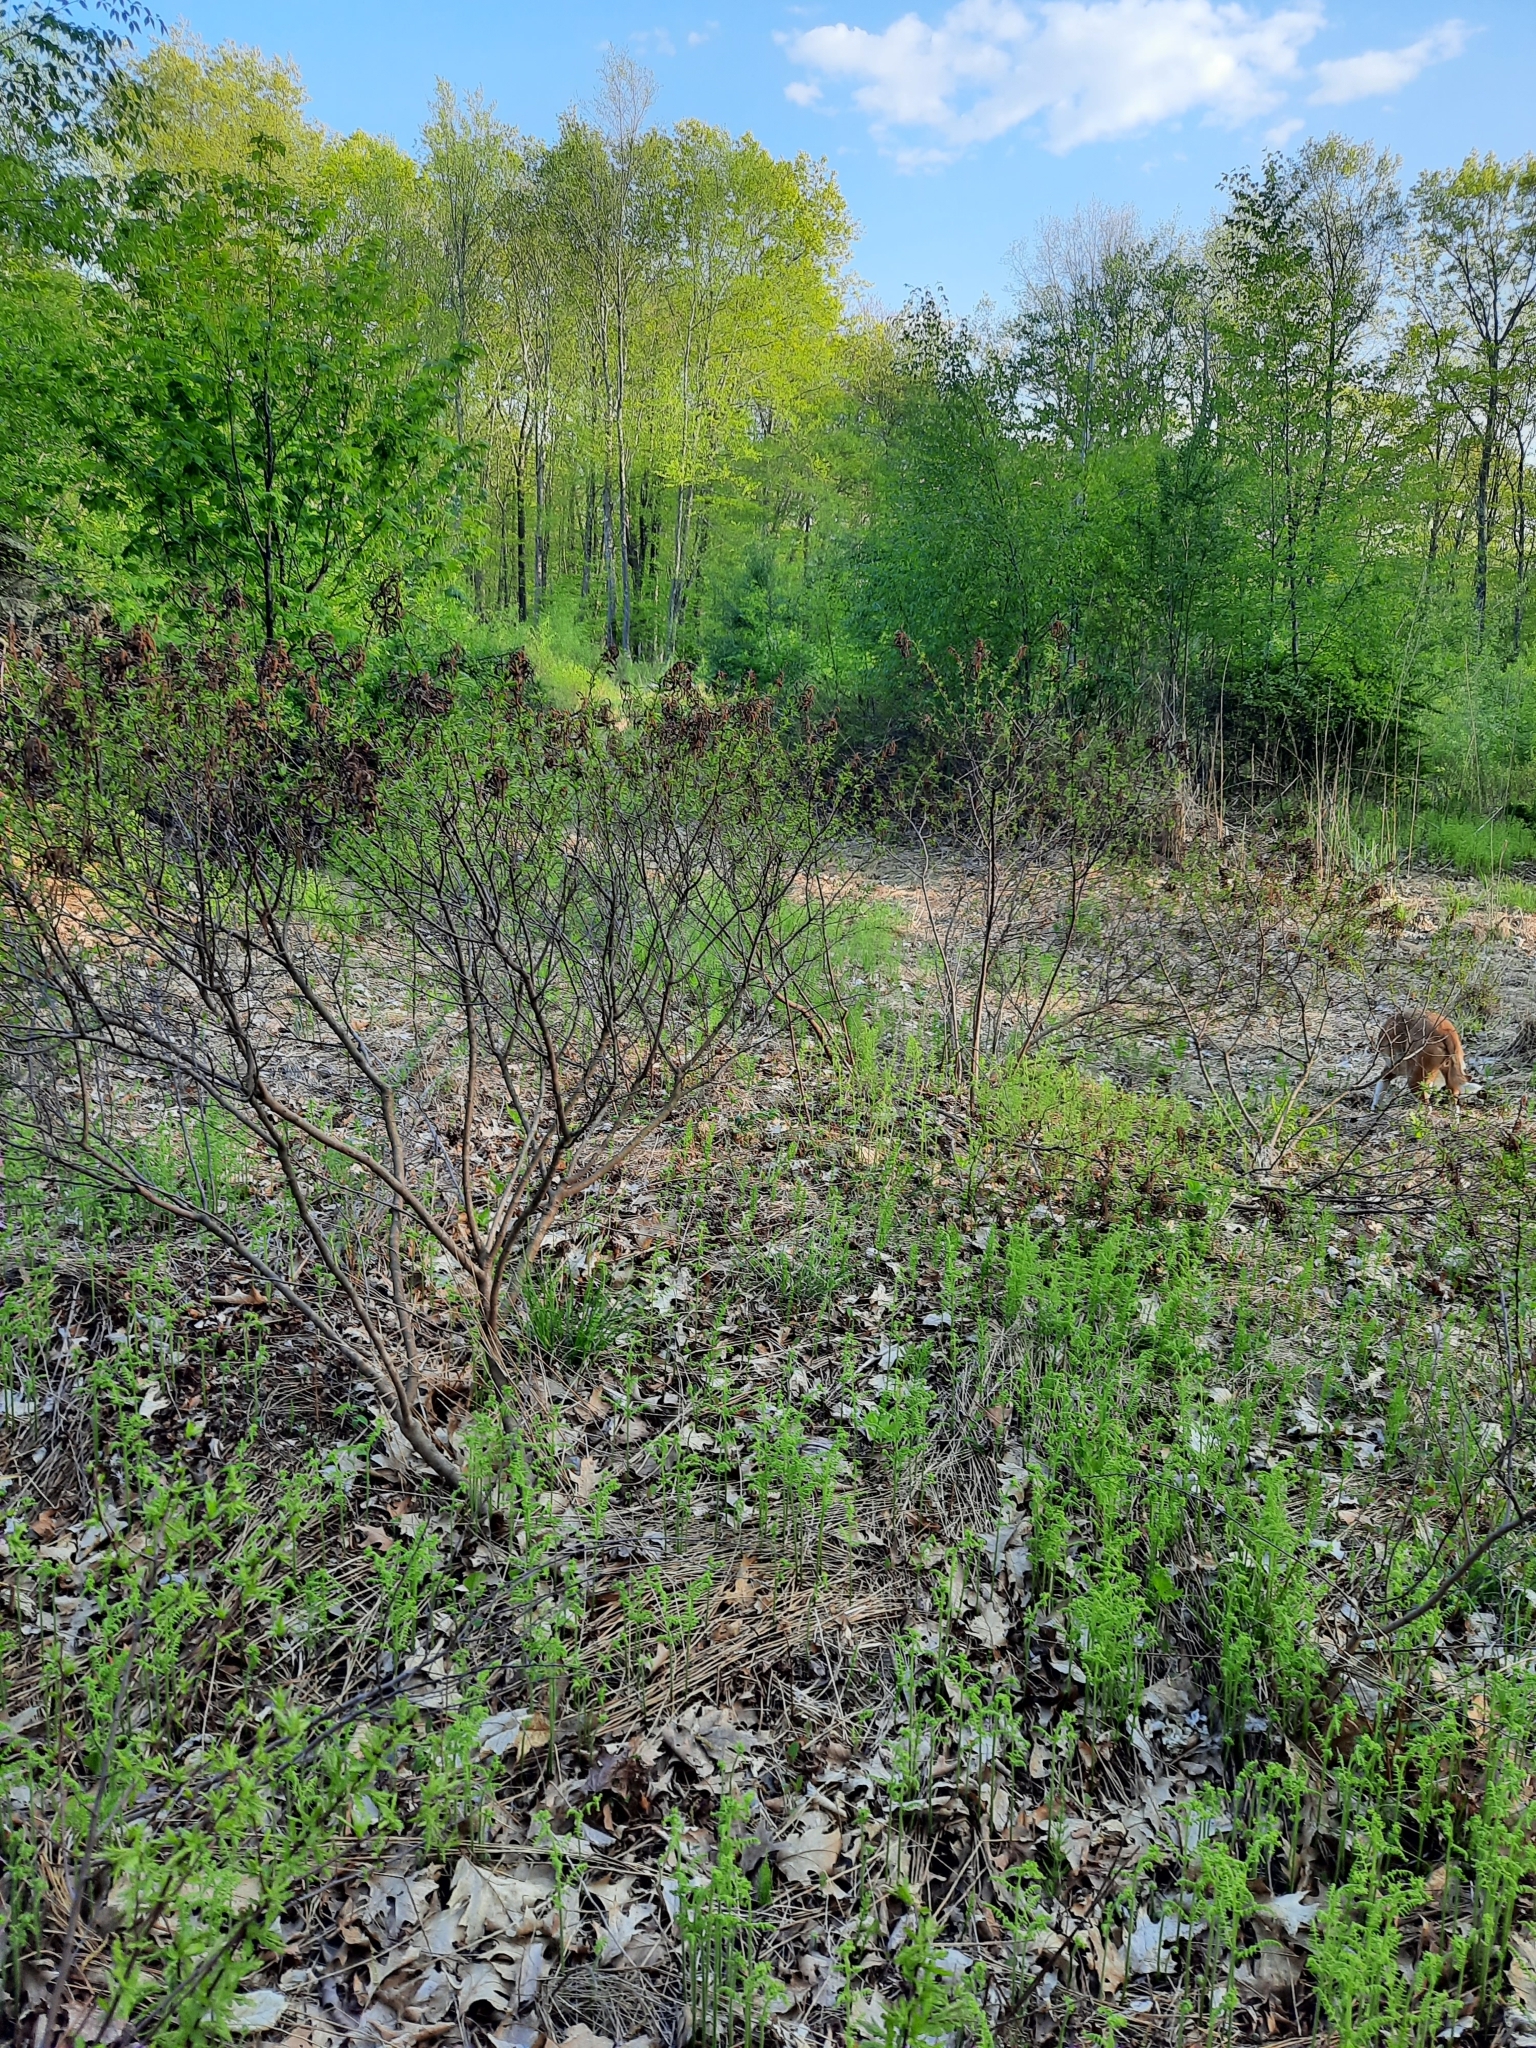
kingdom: Plantae
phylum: Tracheophyta
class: Magnoliopsida
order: Fagales
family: Myricaceae
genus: Comptonia
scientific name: Comptonia peregrina
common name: Sweet-fern
